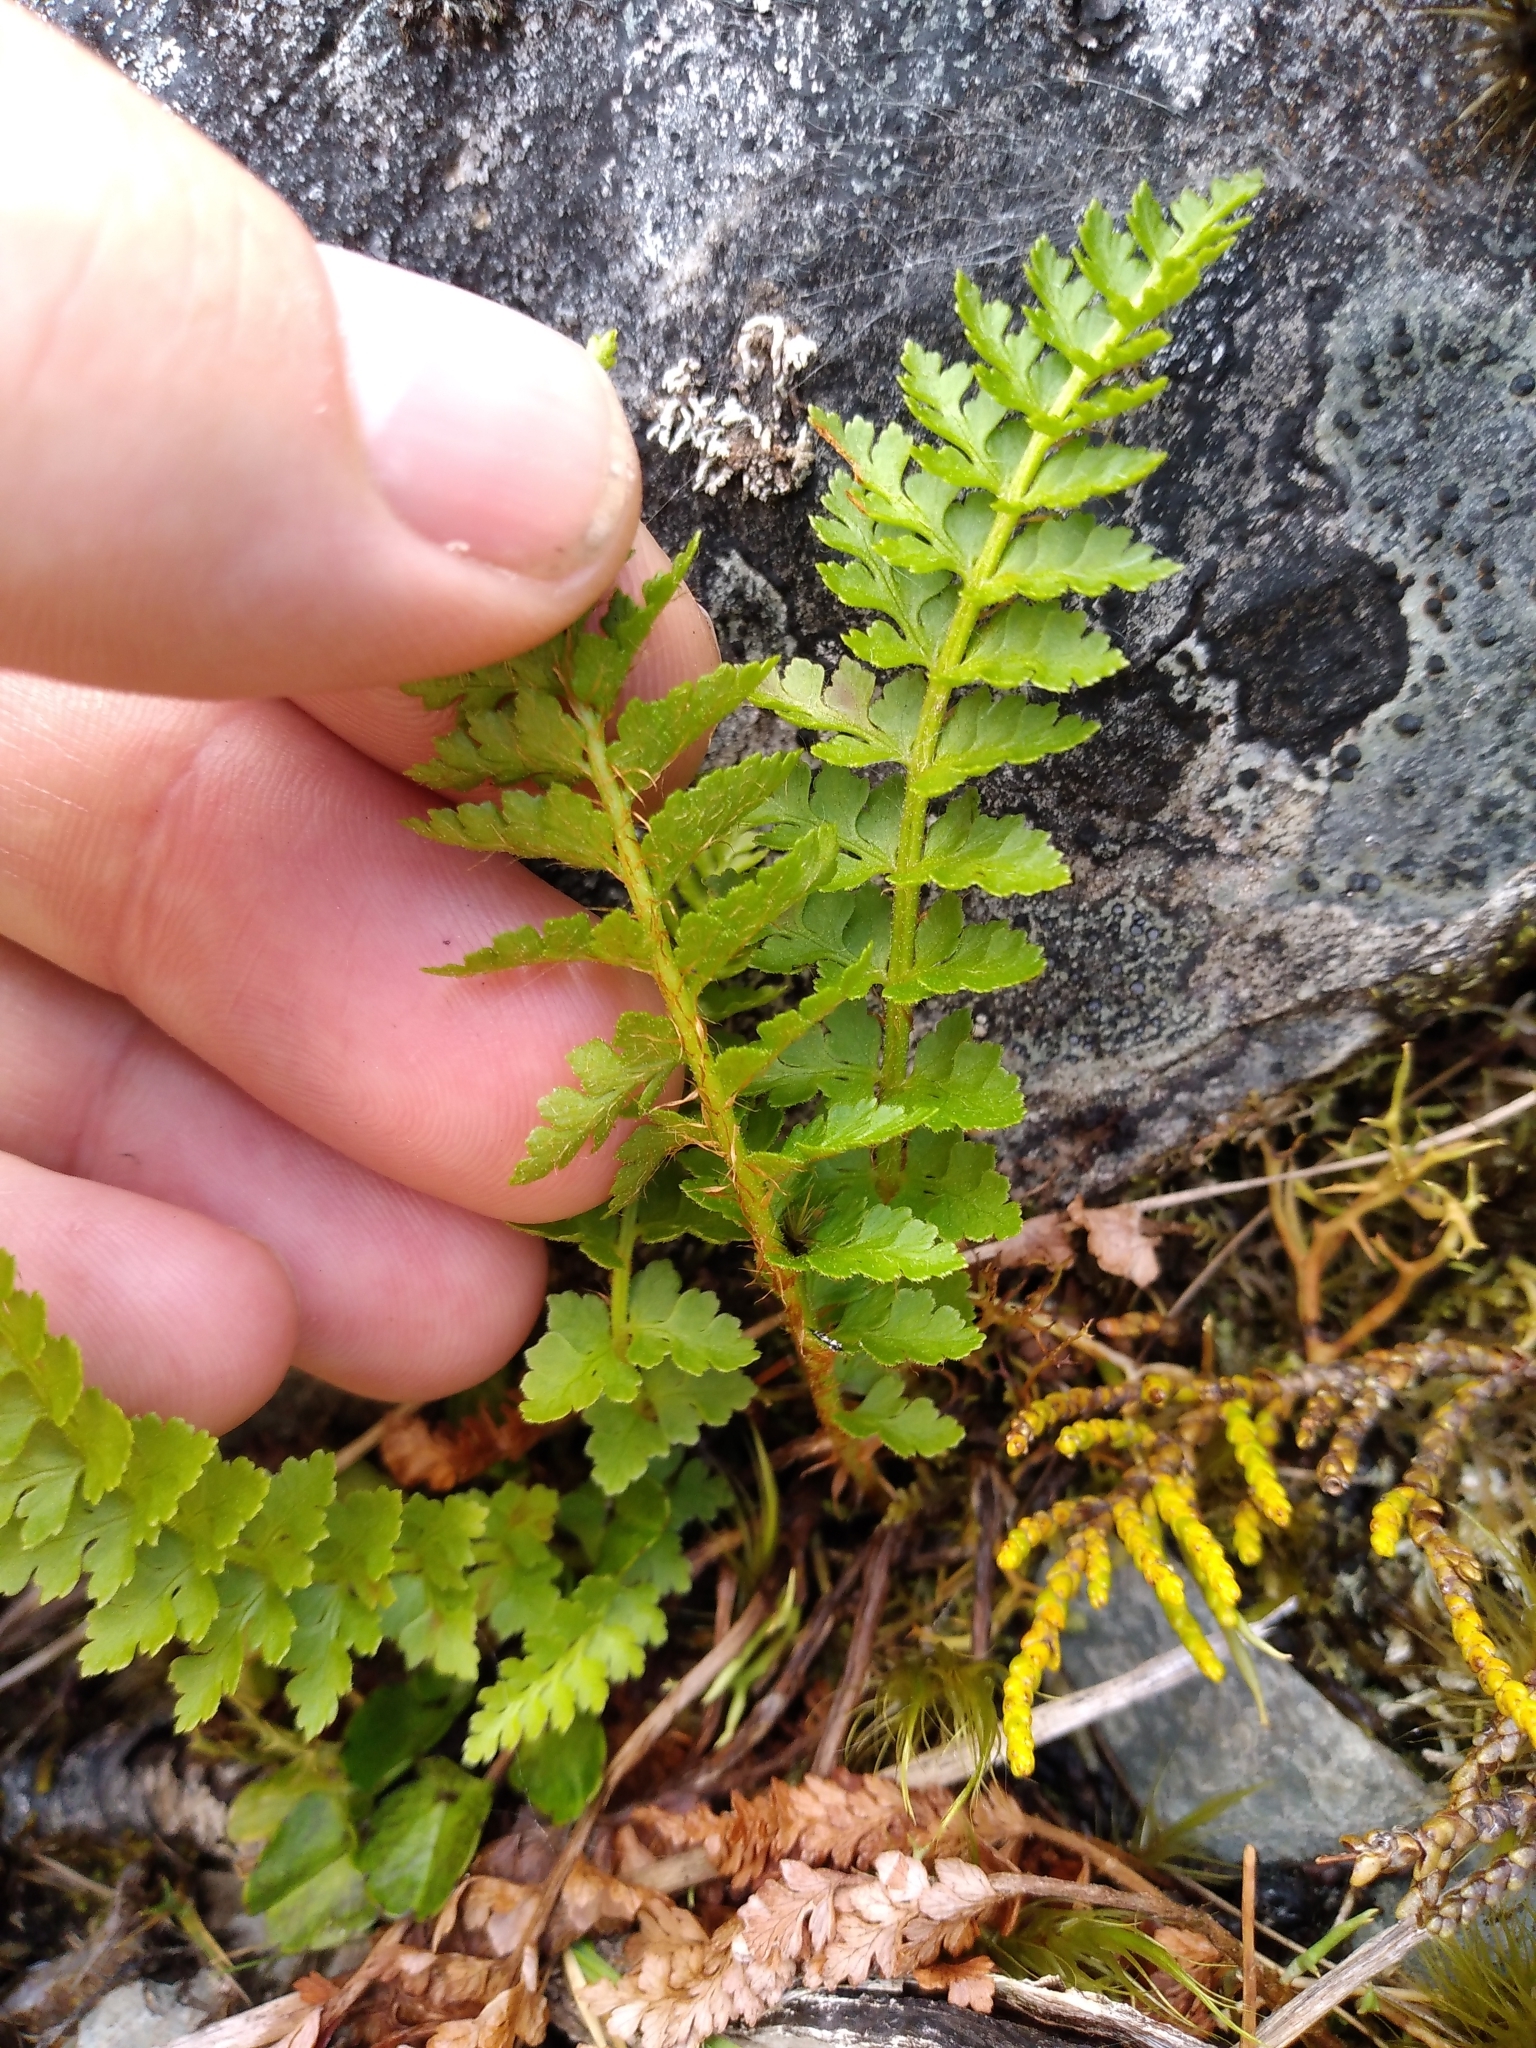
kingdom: Plantae
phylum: Tracheophyta
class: Polypodiopsida
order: Polypodiales
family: Dryopteridaceae
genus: Polystichum
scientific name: Polystichum cystostegia
